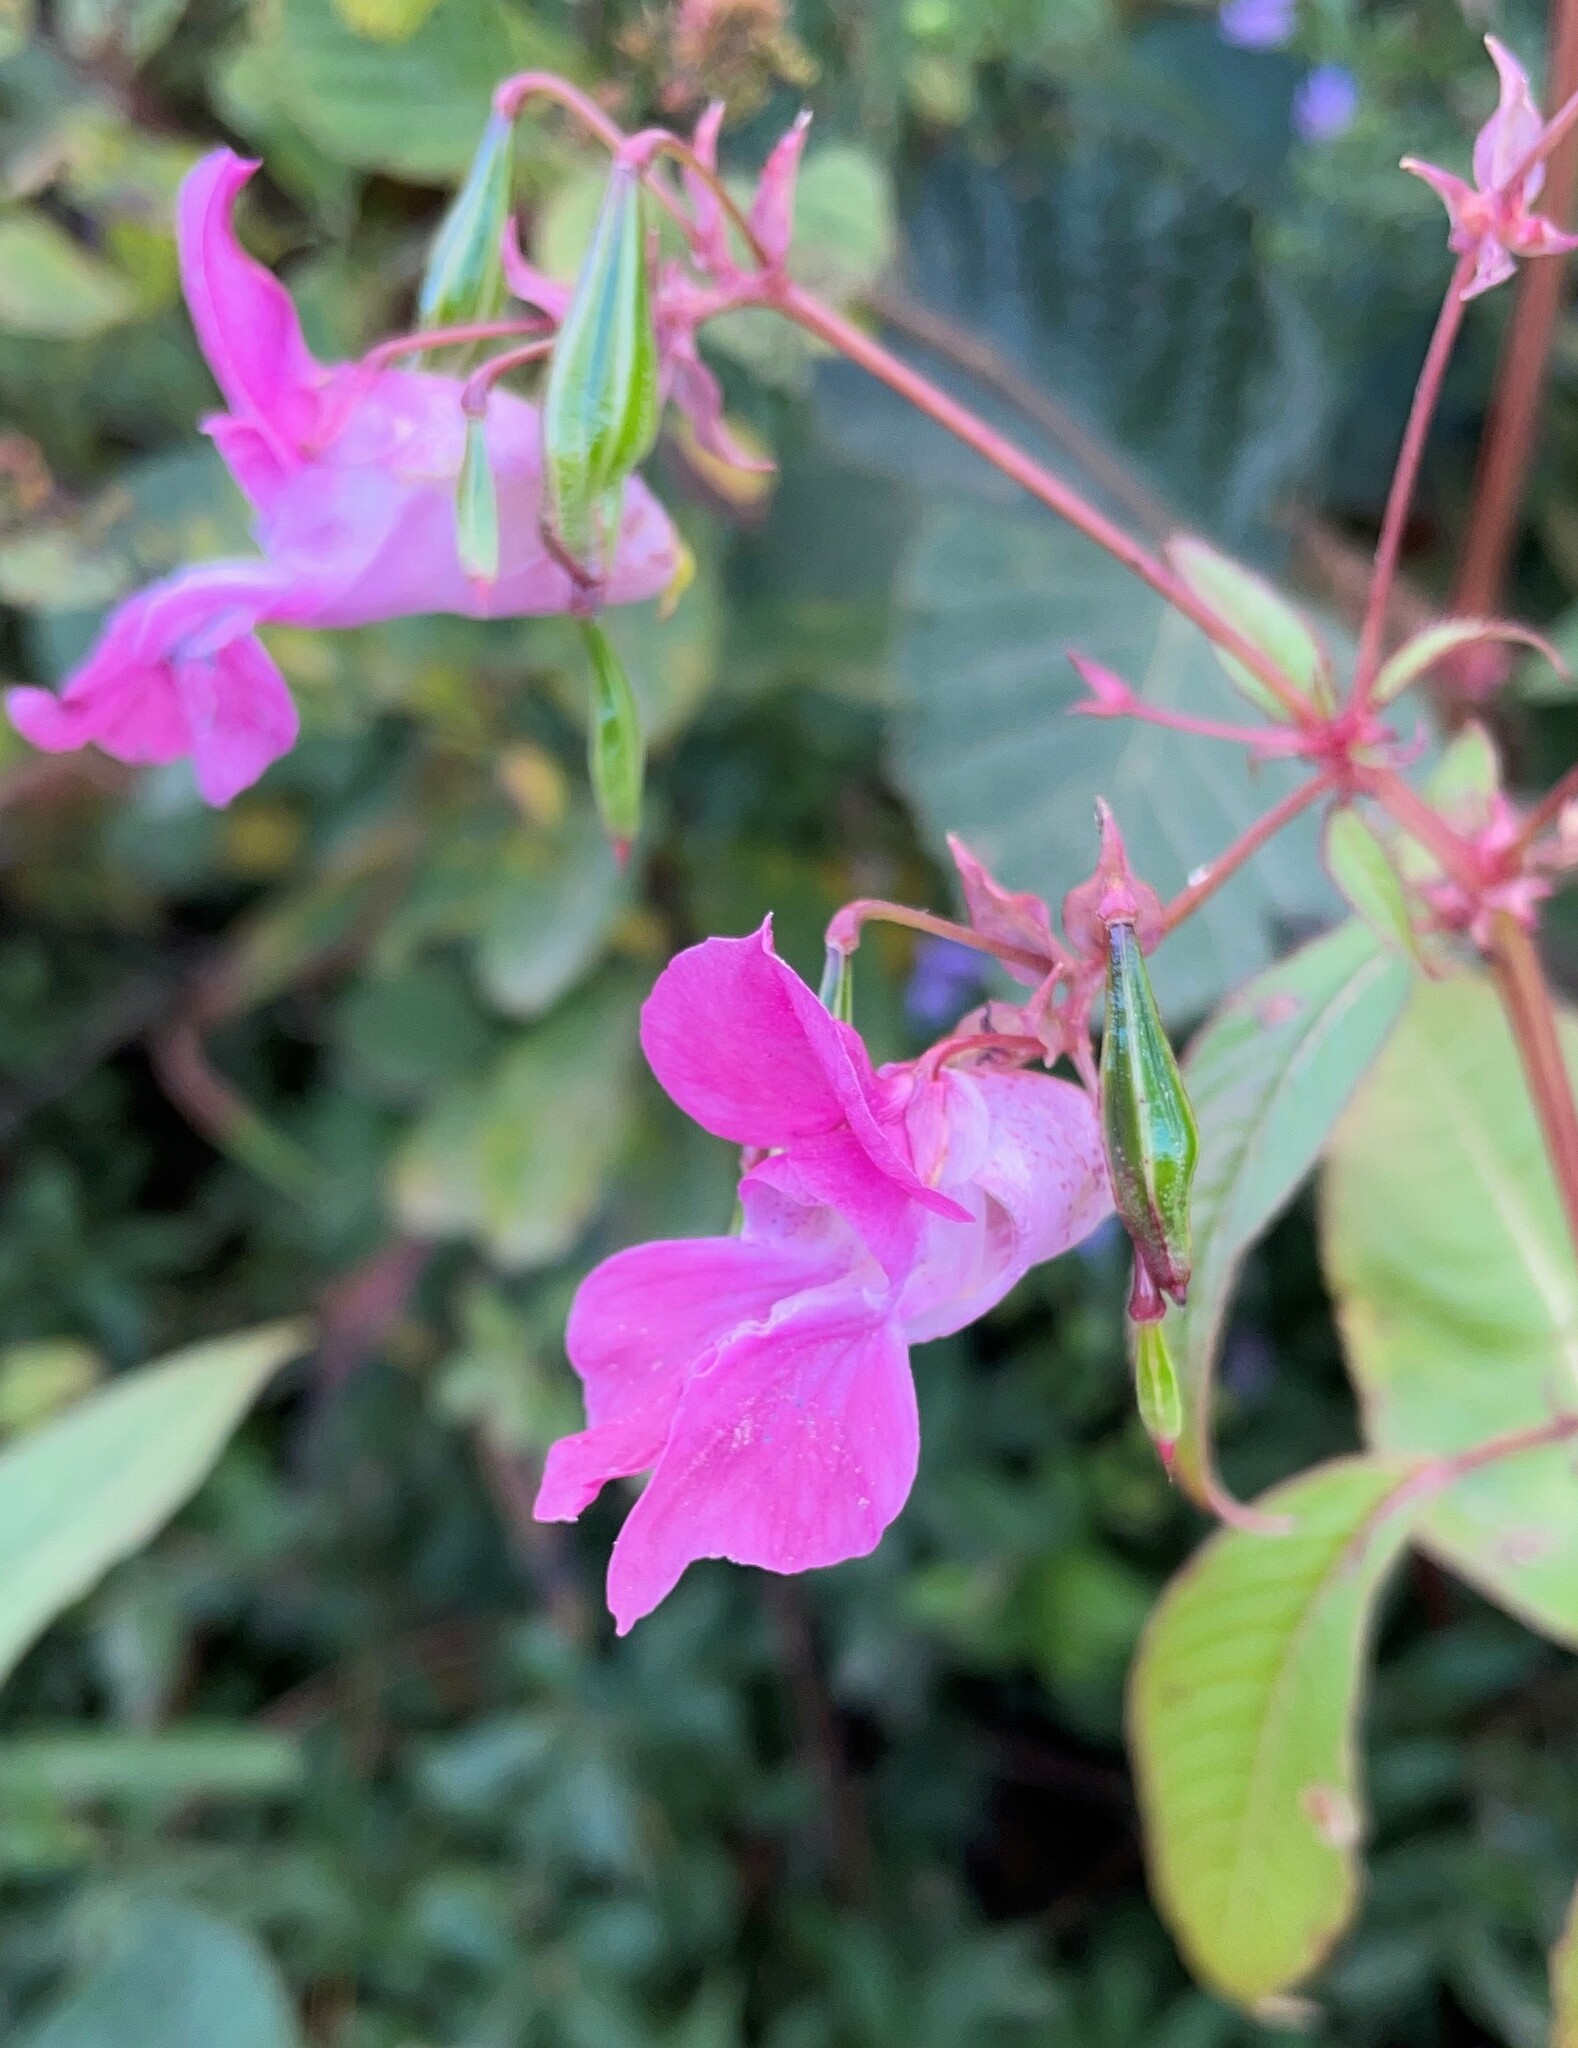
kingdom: Plantae
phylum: Tracheophyta
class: Magnoliopsida
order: Ericales
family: Balsaminaceae
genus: Impatiens
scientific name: Impatiens glandulifera
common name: Himalayan balsam
